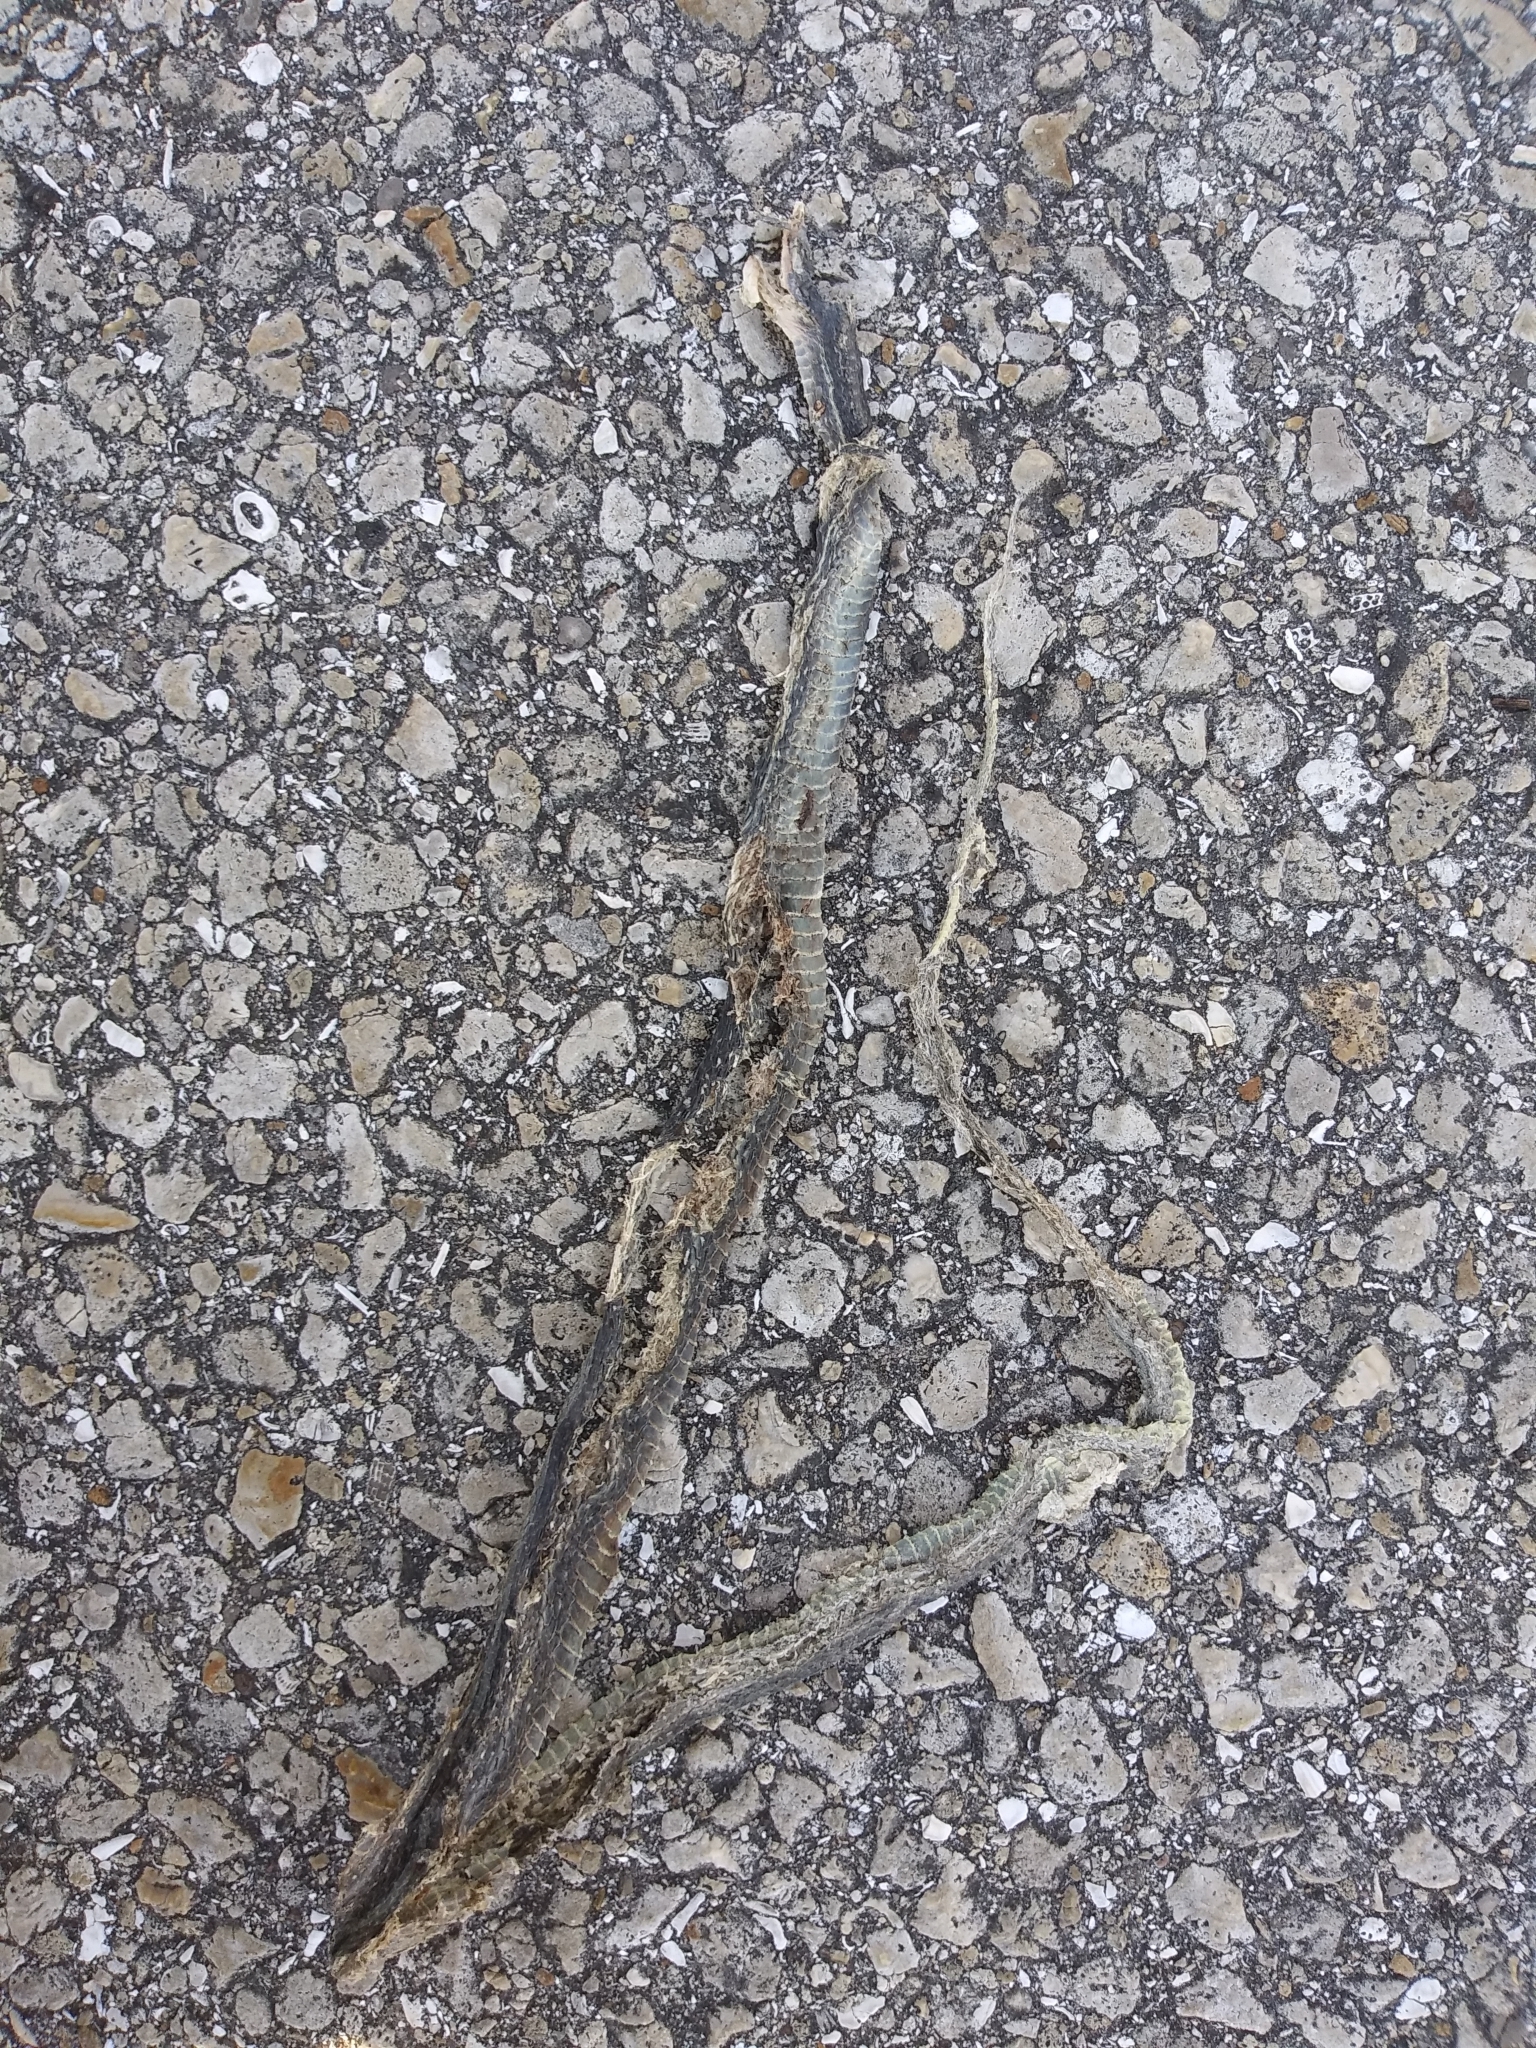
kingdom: Animalia
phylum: Chordata
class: Squamata
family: Colubridae
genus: Thamnophis
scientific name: Thamnophis saurita
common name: Eastern ribbonsnake
